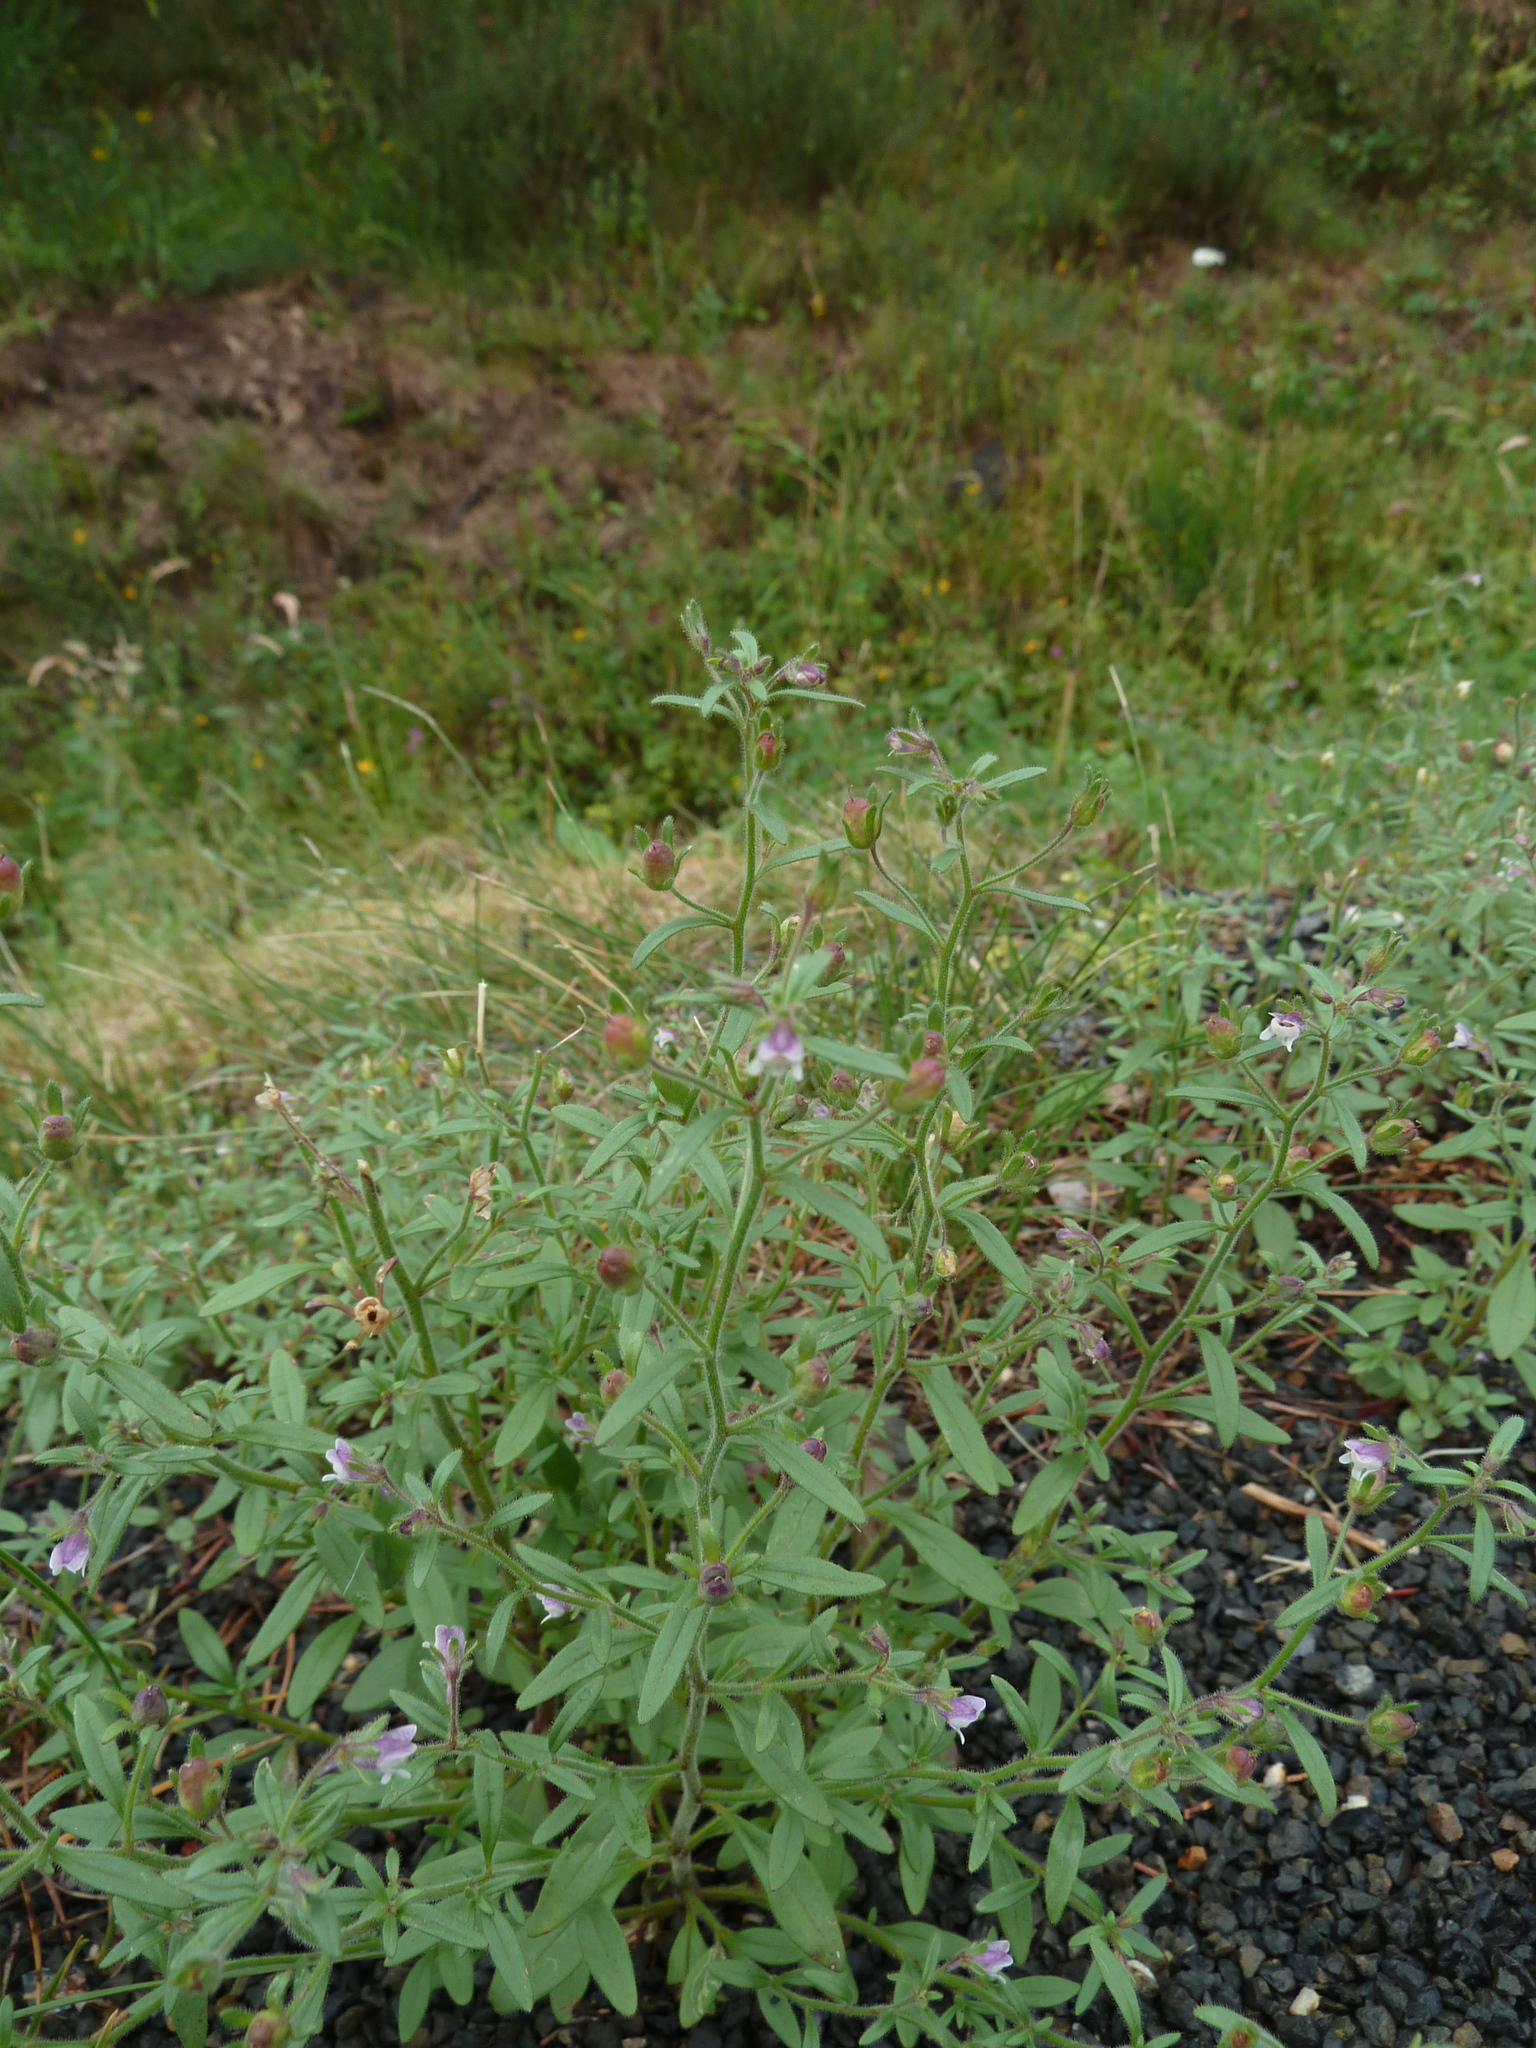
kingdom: Plantae
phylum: Tracheophyta
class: Magnoliopsida
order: Lamiales
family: Plantaginaceae
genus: Chaenorhinum
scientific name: Chaenorhinum minus
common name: Dwarf snapdragon
